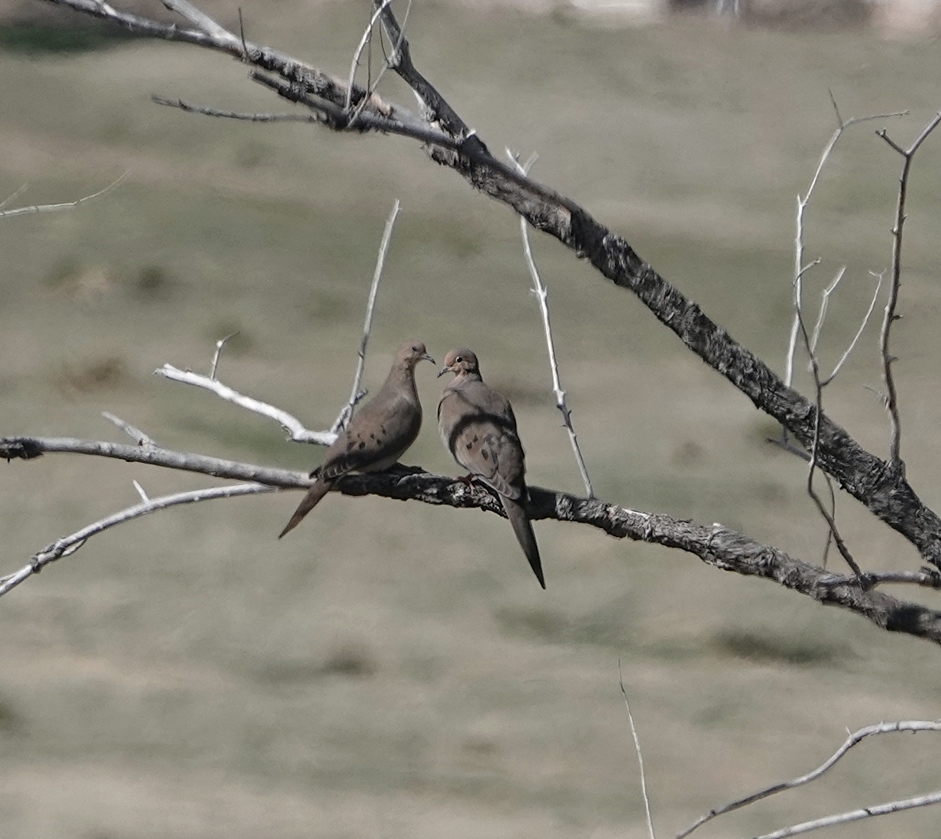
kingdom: Animalia
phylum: Chordata
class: Aves
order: Columbiformes
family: Columbidae
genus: Zenaida
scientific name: Zenaida macroura
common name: Mourning dove
